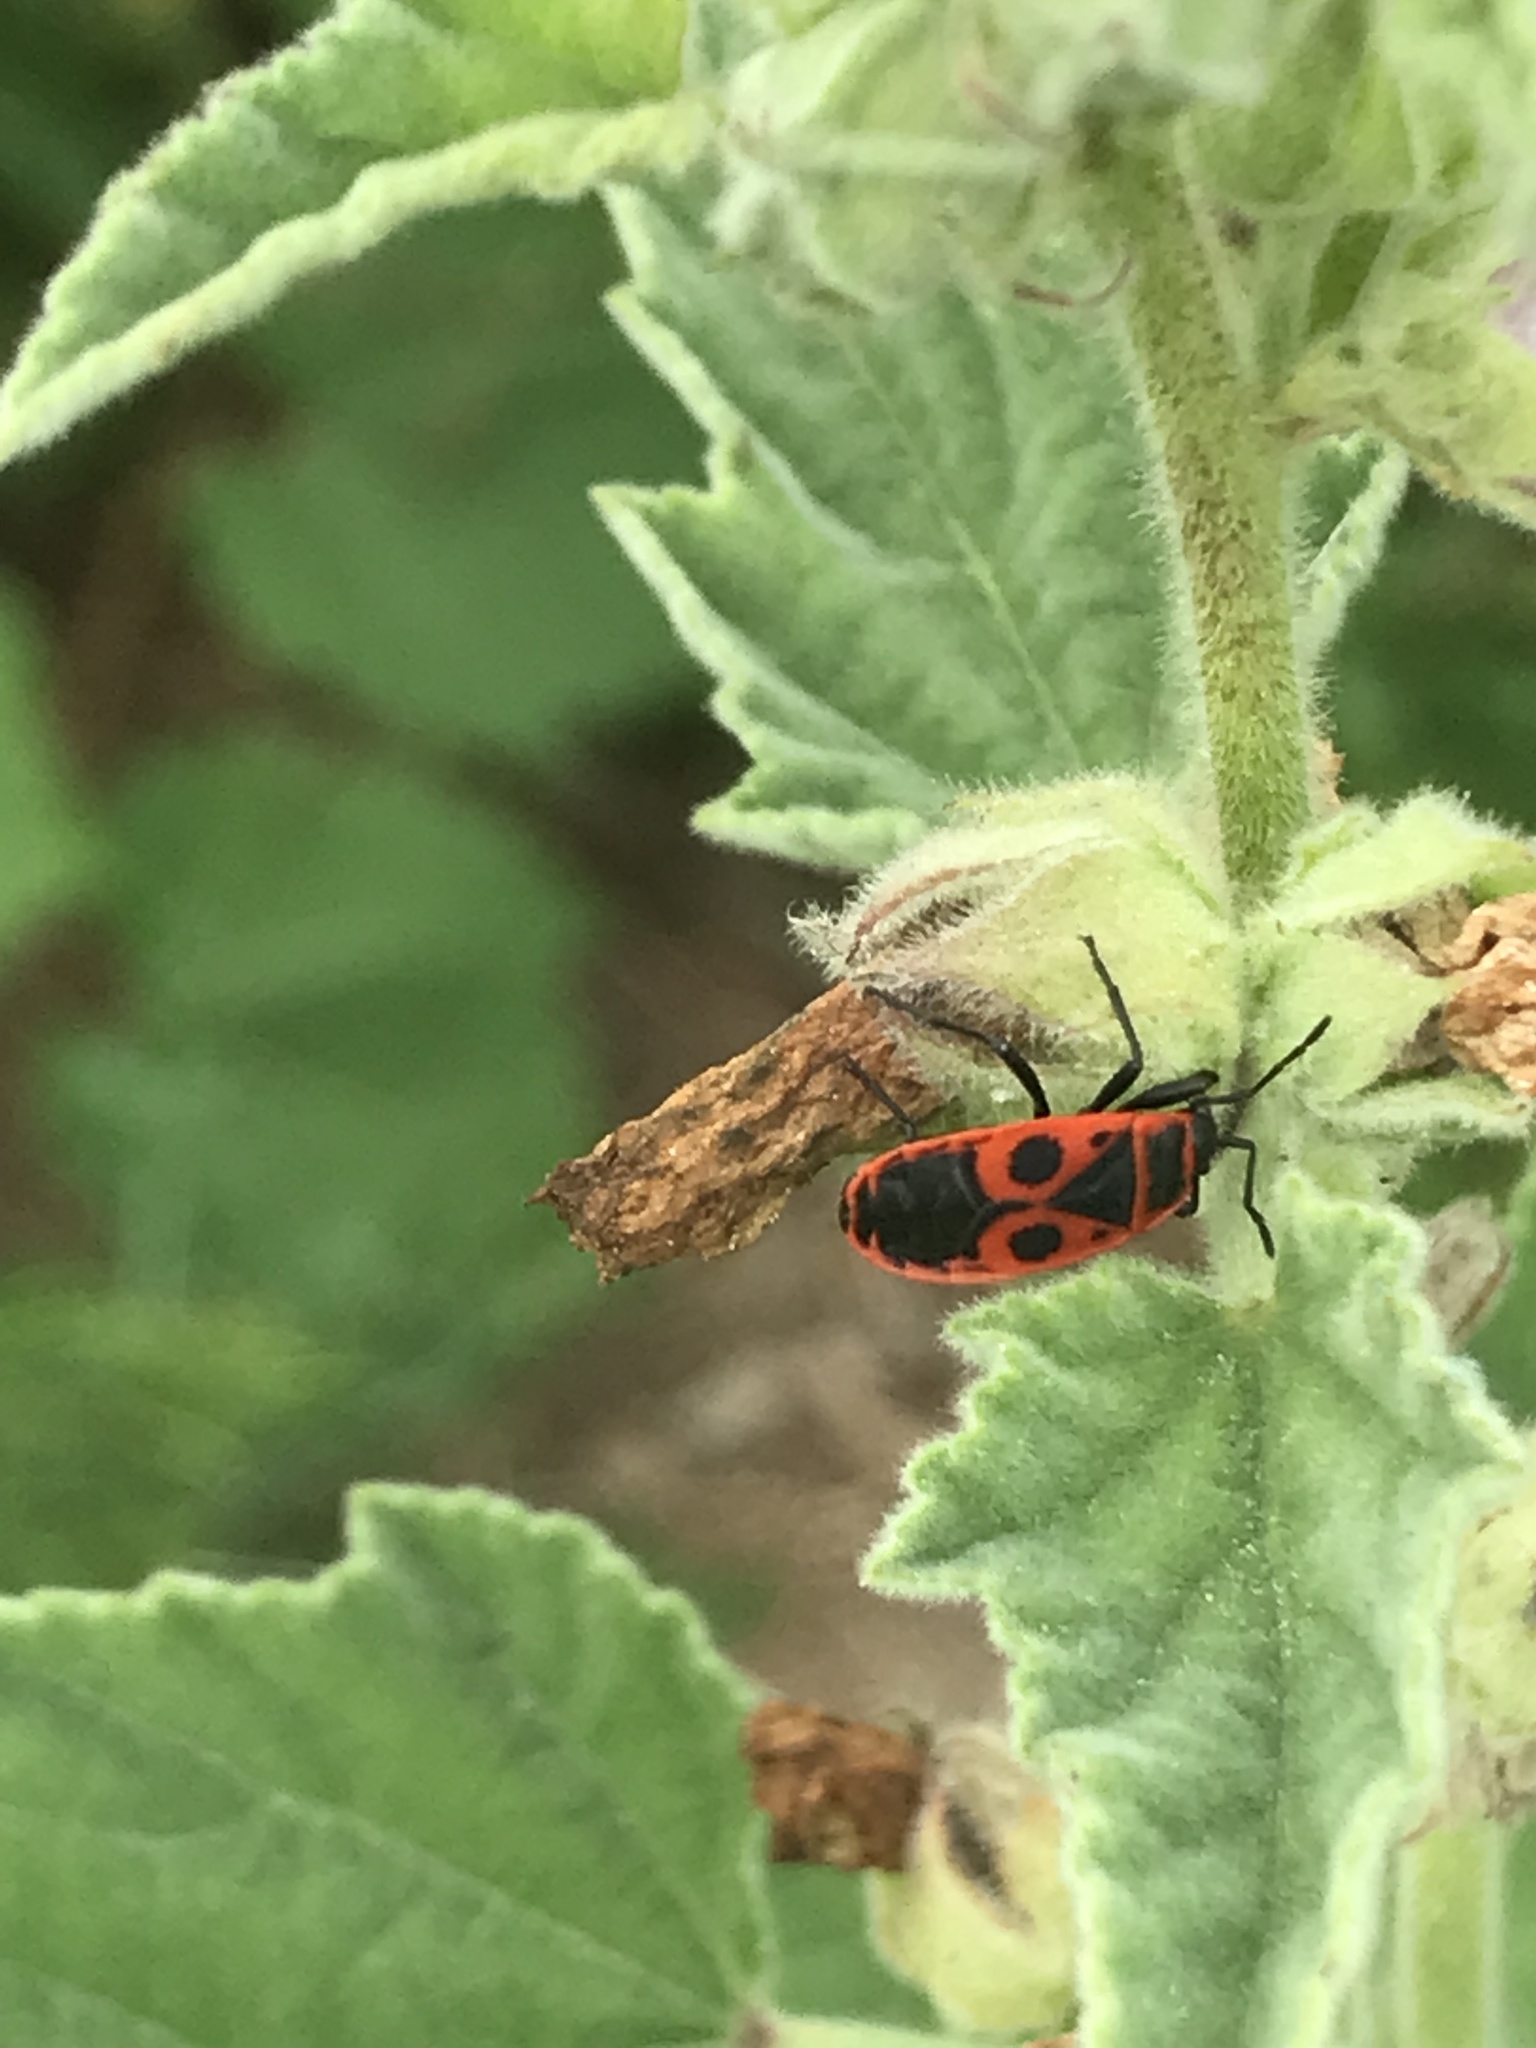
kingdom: Animalia
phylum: Arthropoda
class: Insecta
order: Hemiptera
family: Pyrrhocoridae
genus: Pyrrhocoris
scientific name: Pyrrhocoris apterus
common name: Firebug
